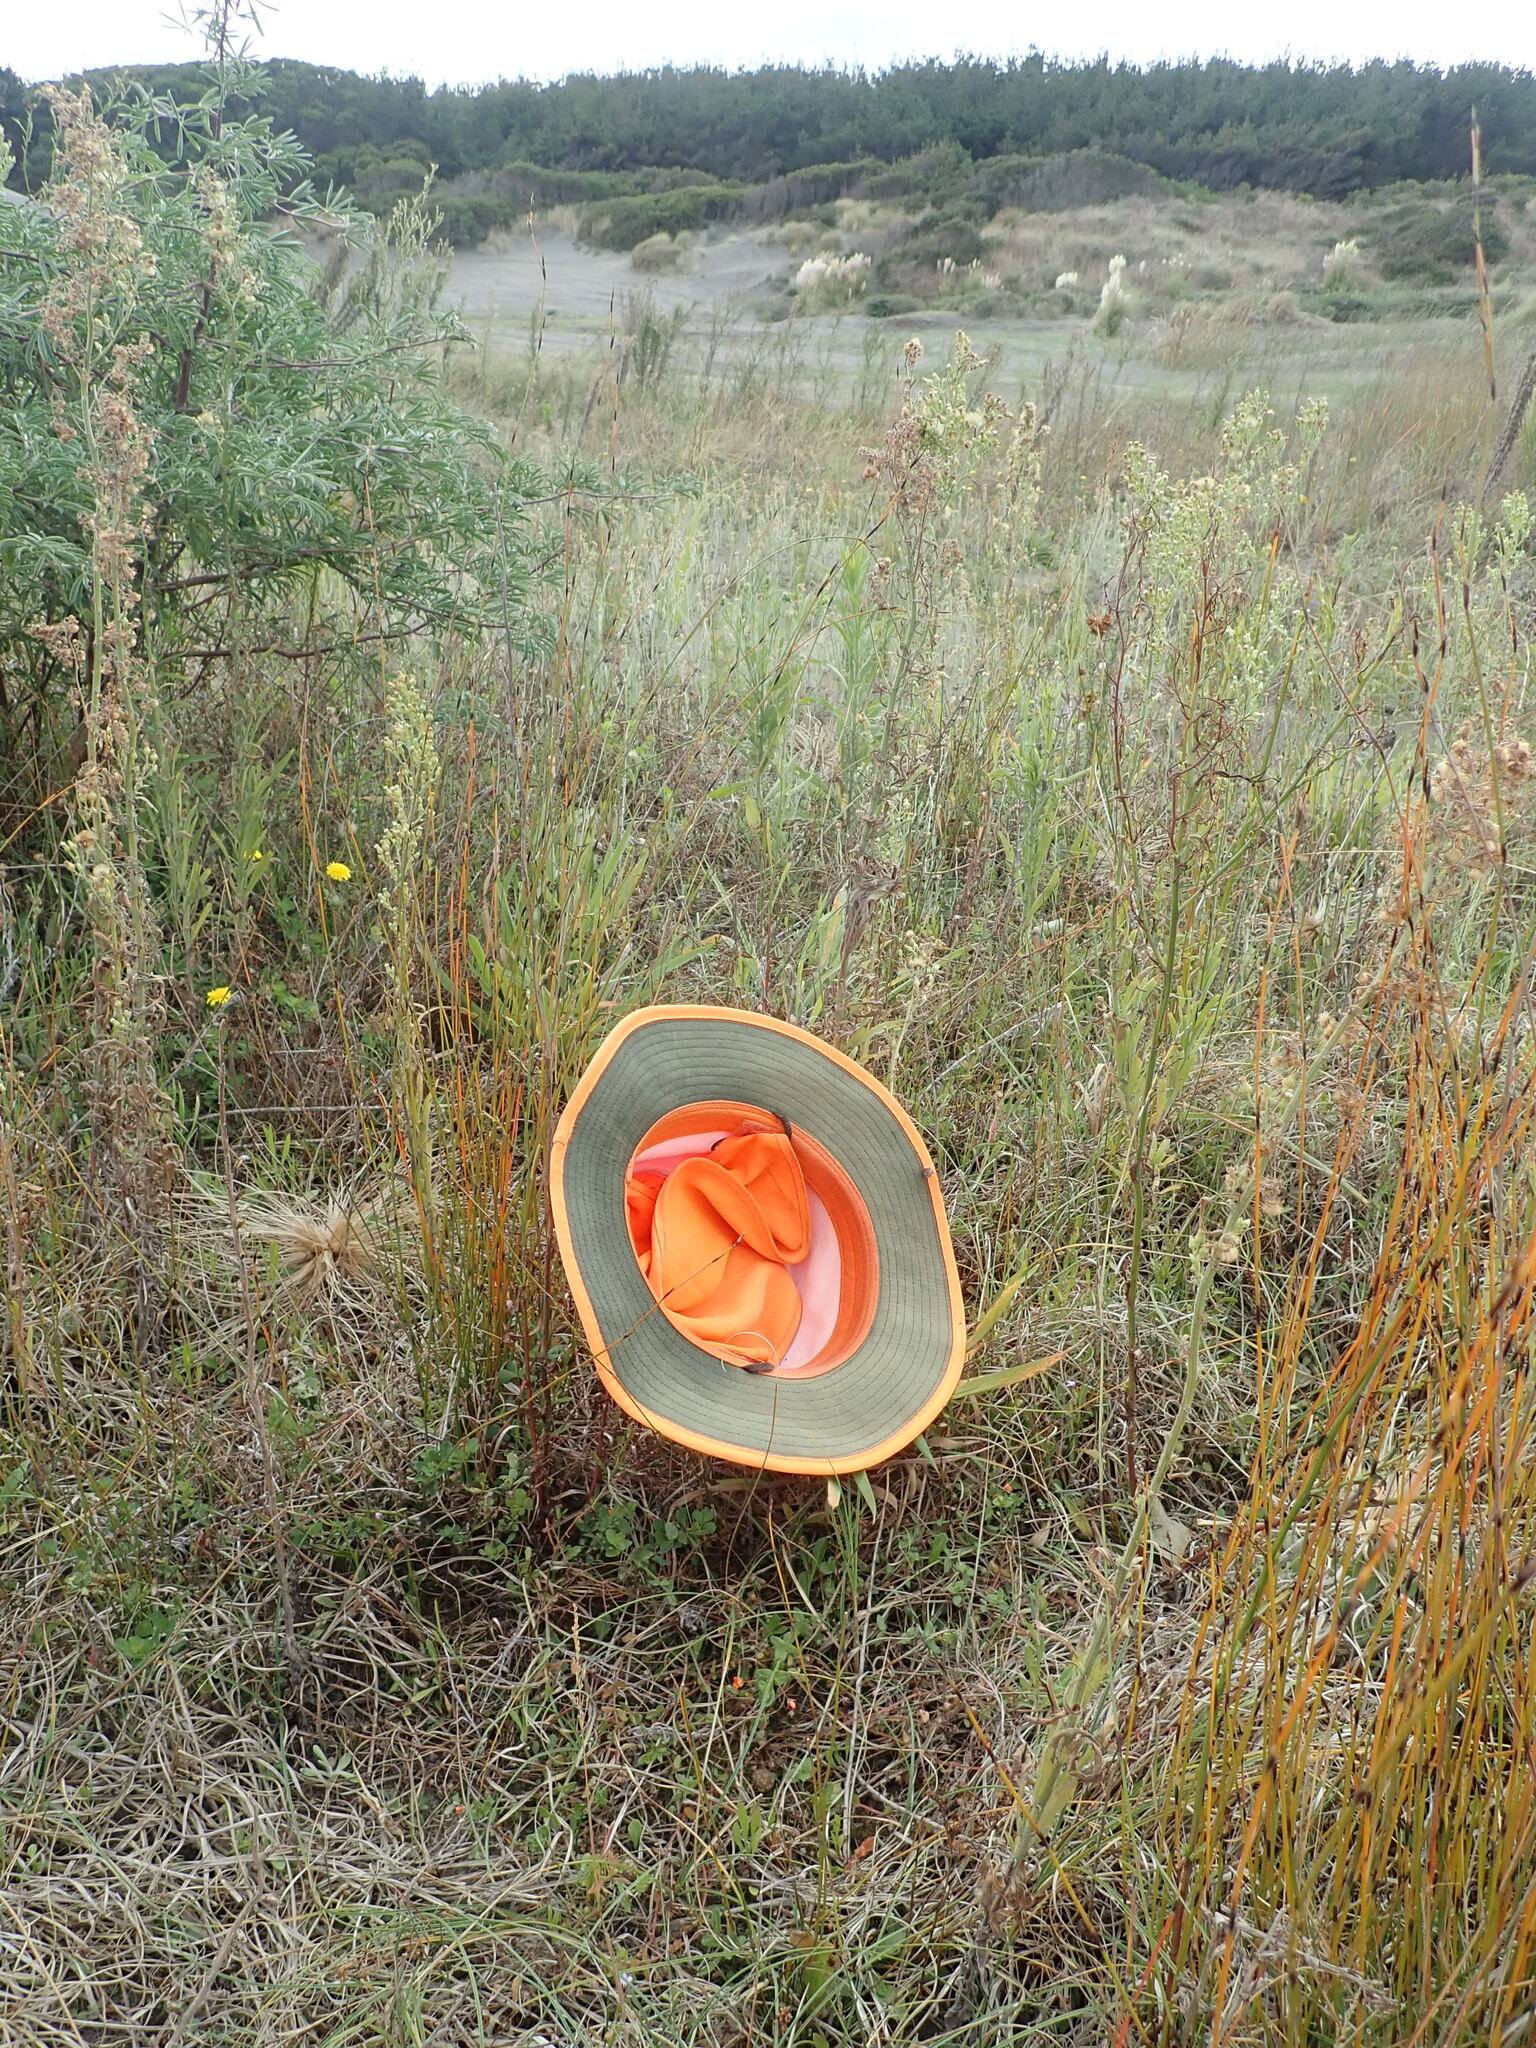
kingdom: Plantae
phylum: Tracheophyta
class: Magnoliopsida
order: Ericales
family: Primulaceae
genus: Lysimachia
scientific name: Lysimachia arvensis
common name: Scarlet pimpernel
